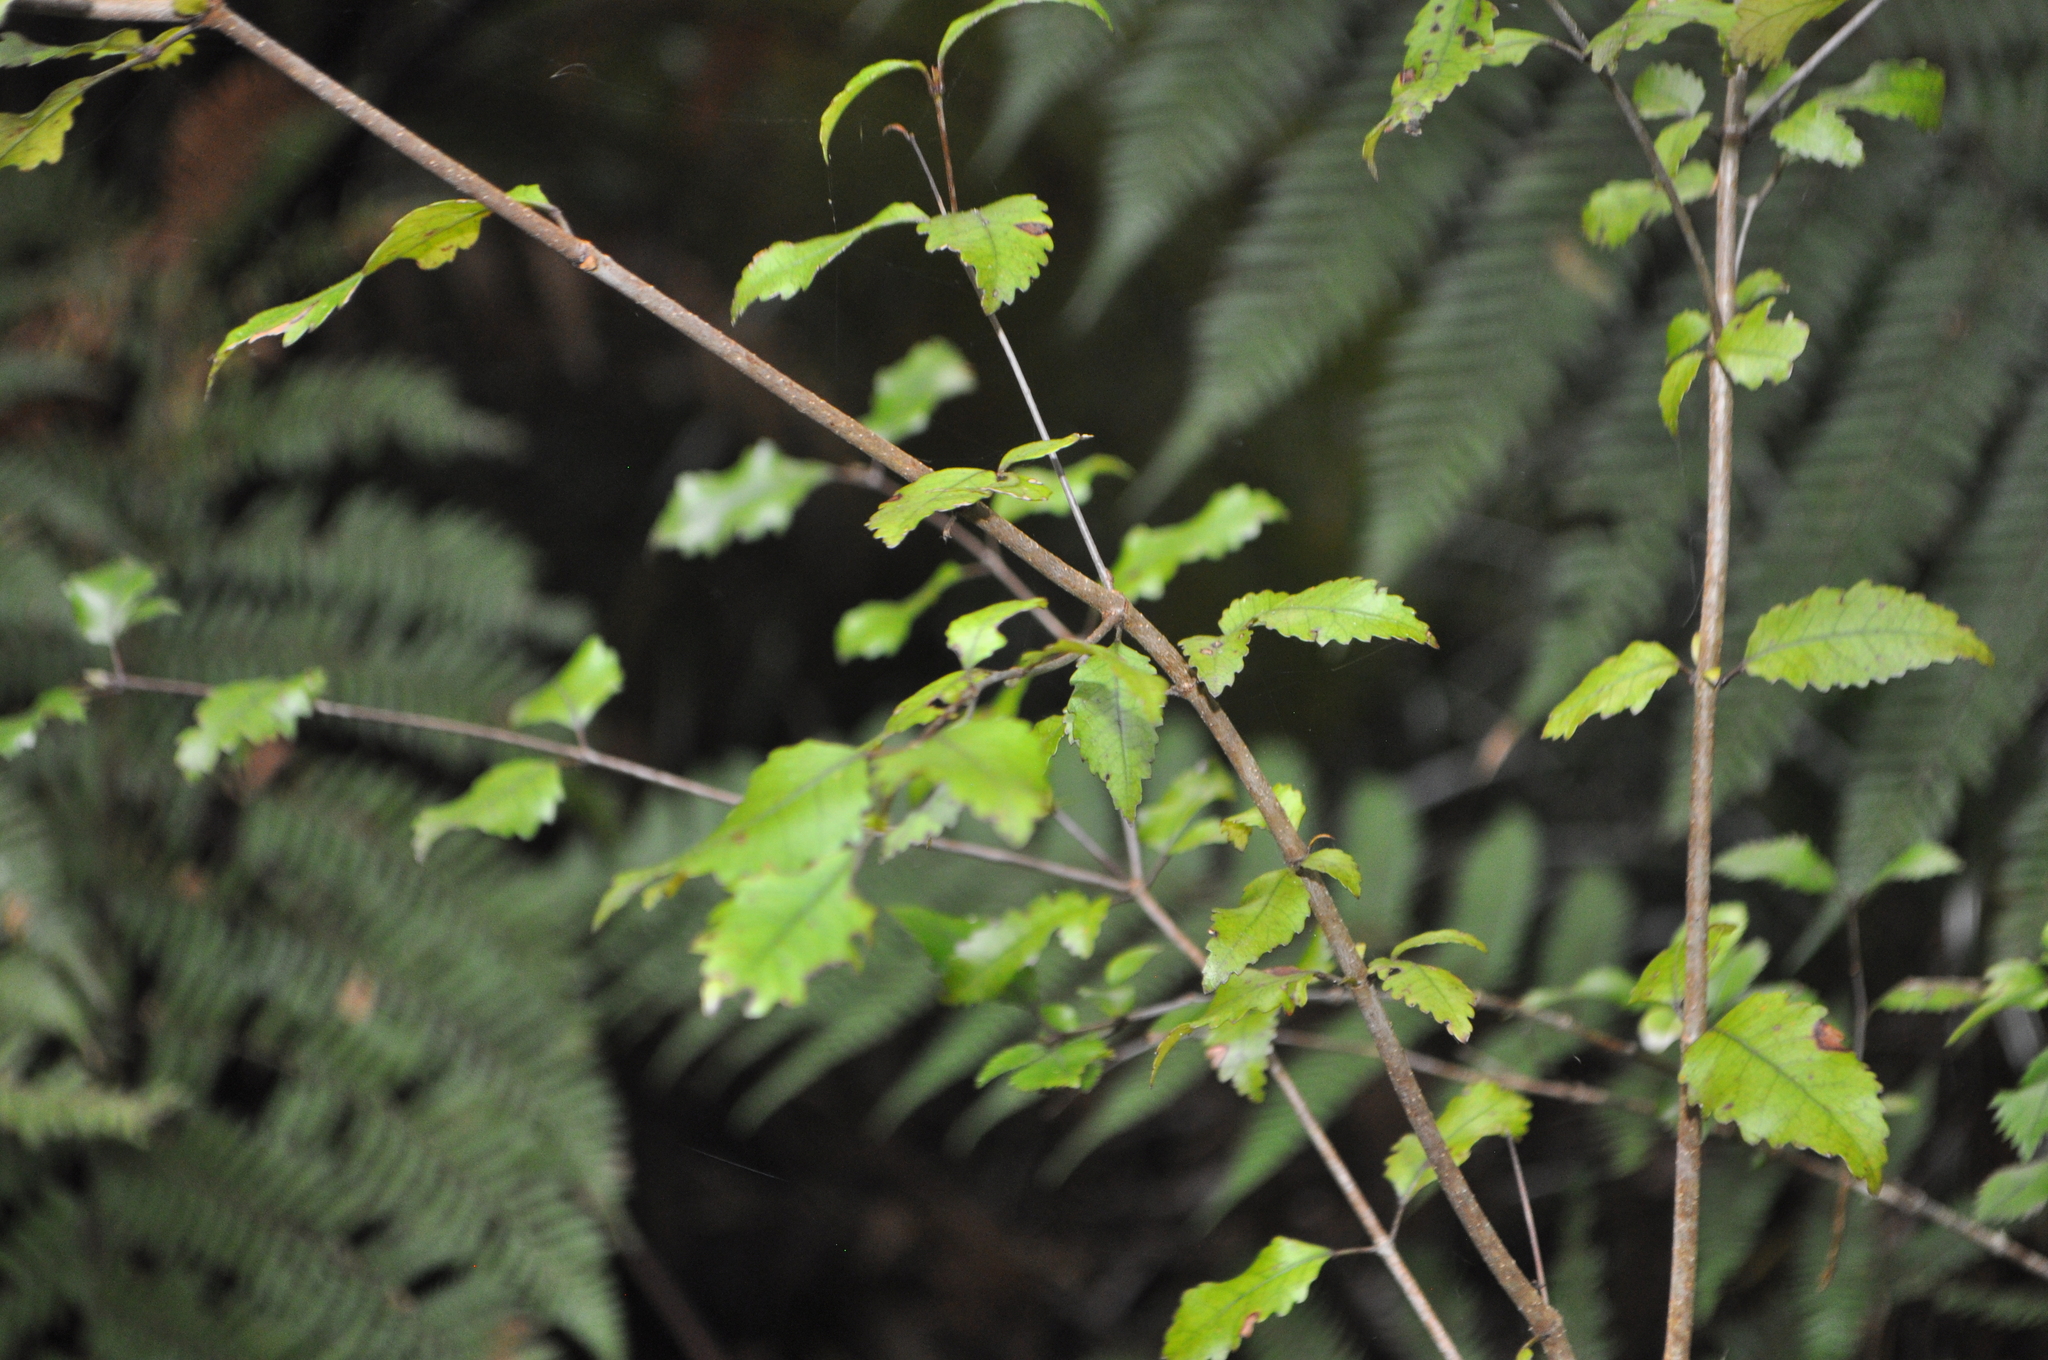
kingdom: Plantae
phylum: Tracheophyta
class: Magnoliopsida
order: Oxalidales
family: Cunoniaceae
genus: Pterophylla
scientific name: Pterophylla racemosa
